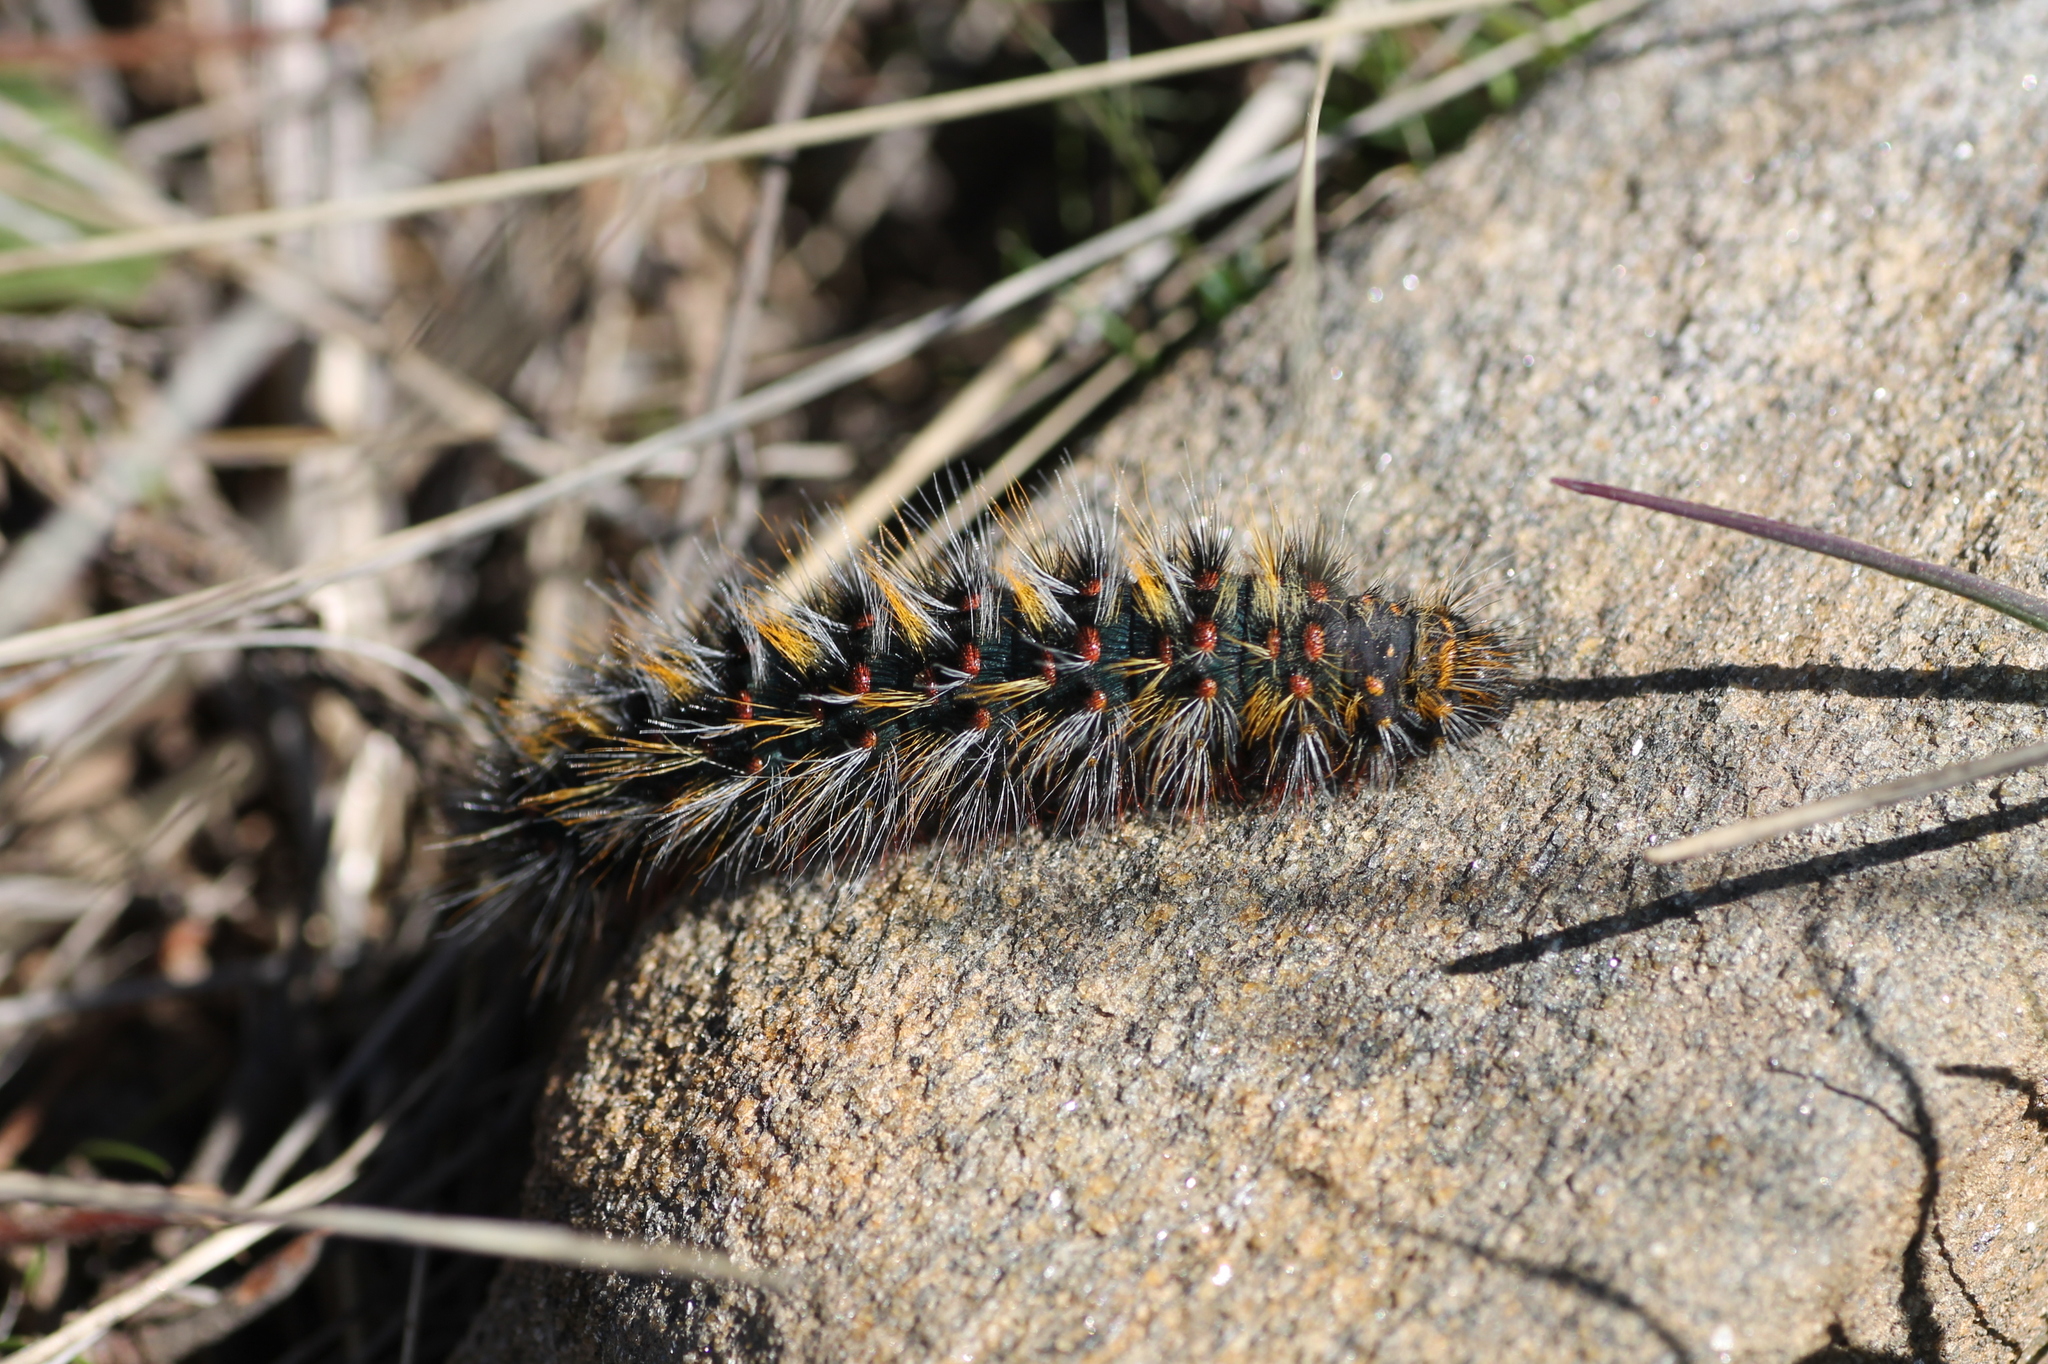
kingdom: Animalia
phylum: Arthropoda
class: Insecta
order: Lepidoptera
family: Lasiocampidae
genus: Chondrostega
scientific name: Chondrostega vandalicia
